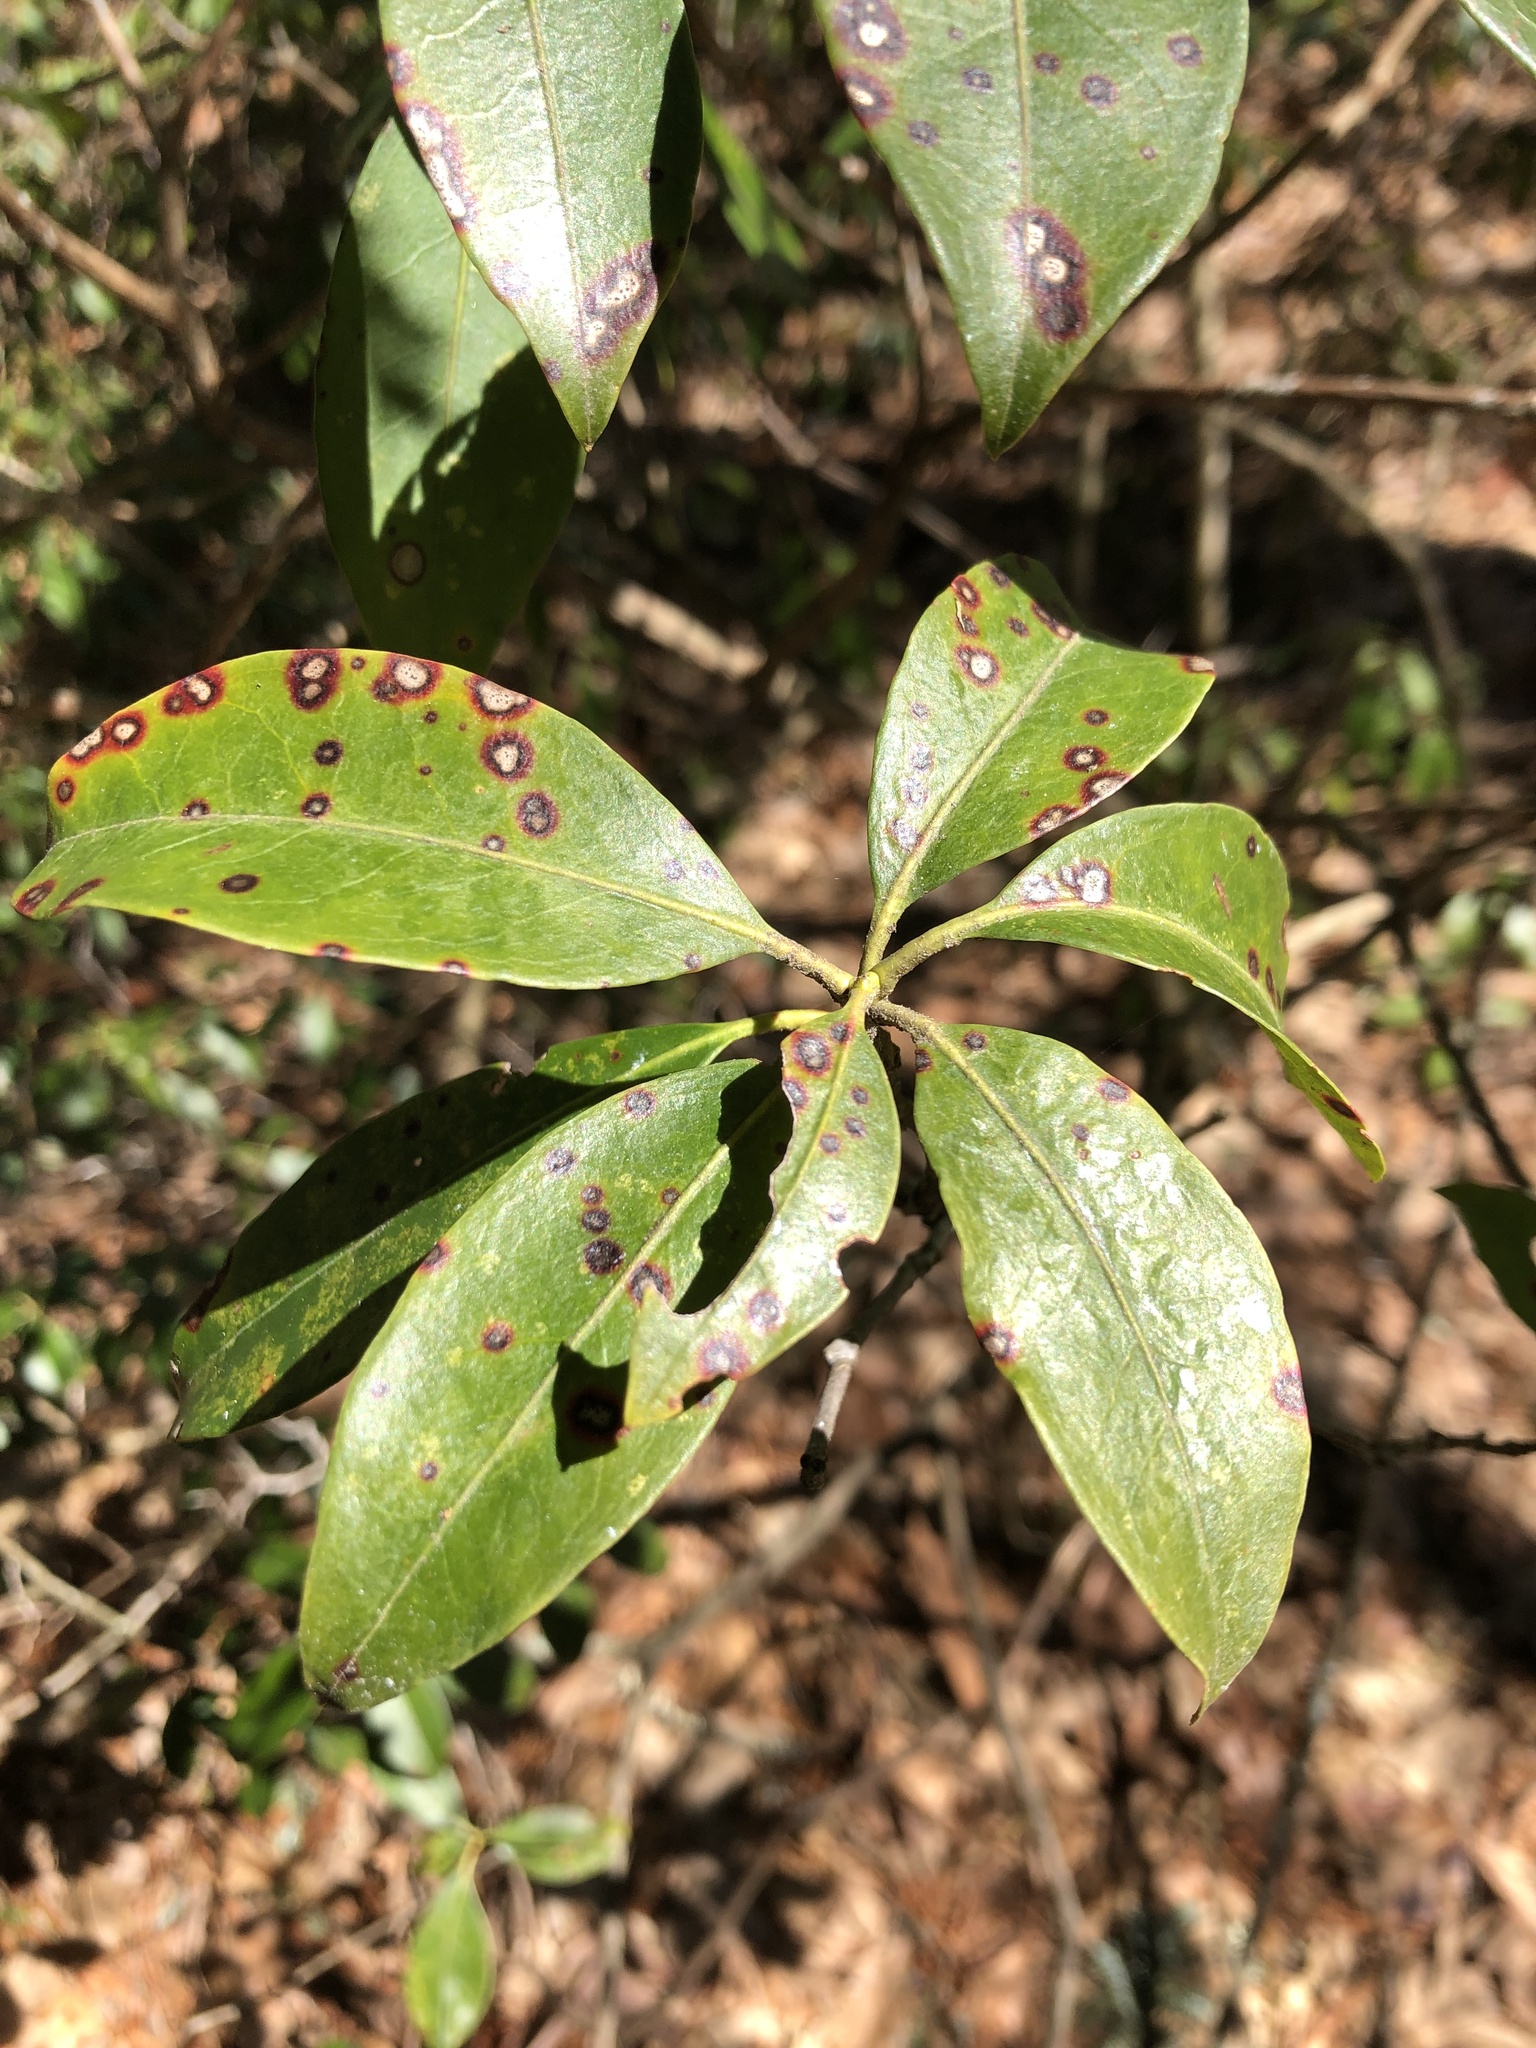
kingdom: Plantae
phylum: Tracheophyta
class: Magnoliopsida
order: Ericales
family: Ericaceae
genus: Kalmia
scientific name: Kalmia latifolia
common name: Mountain-laurel
